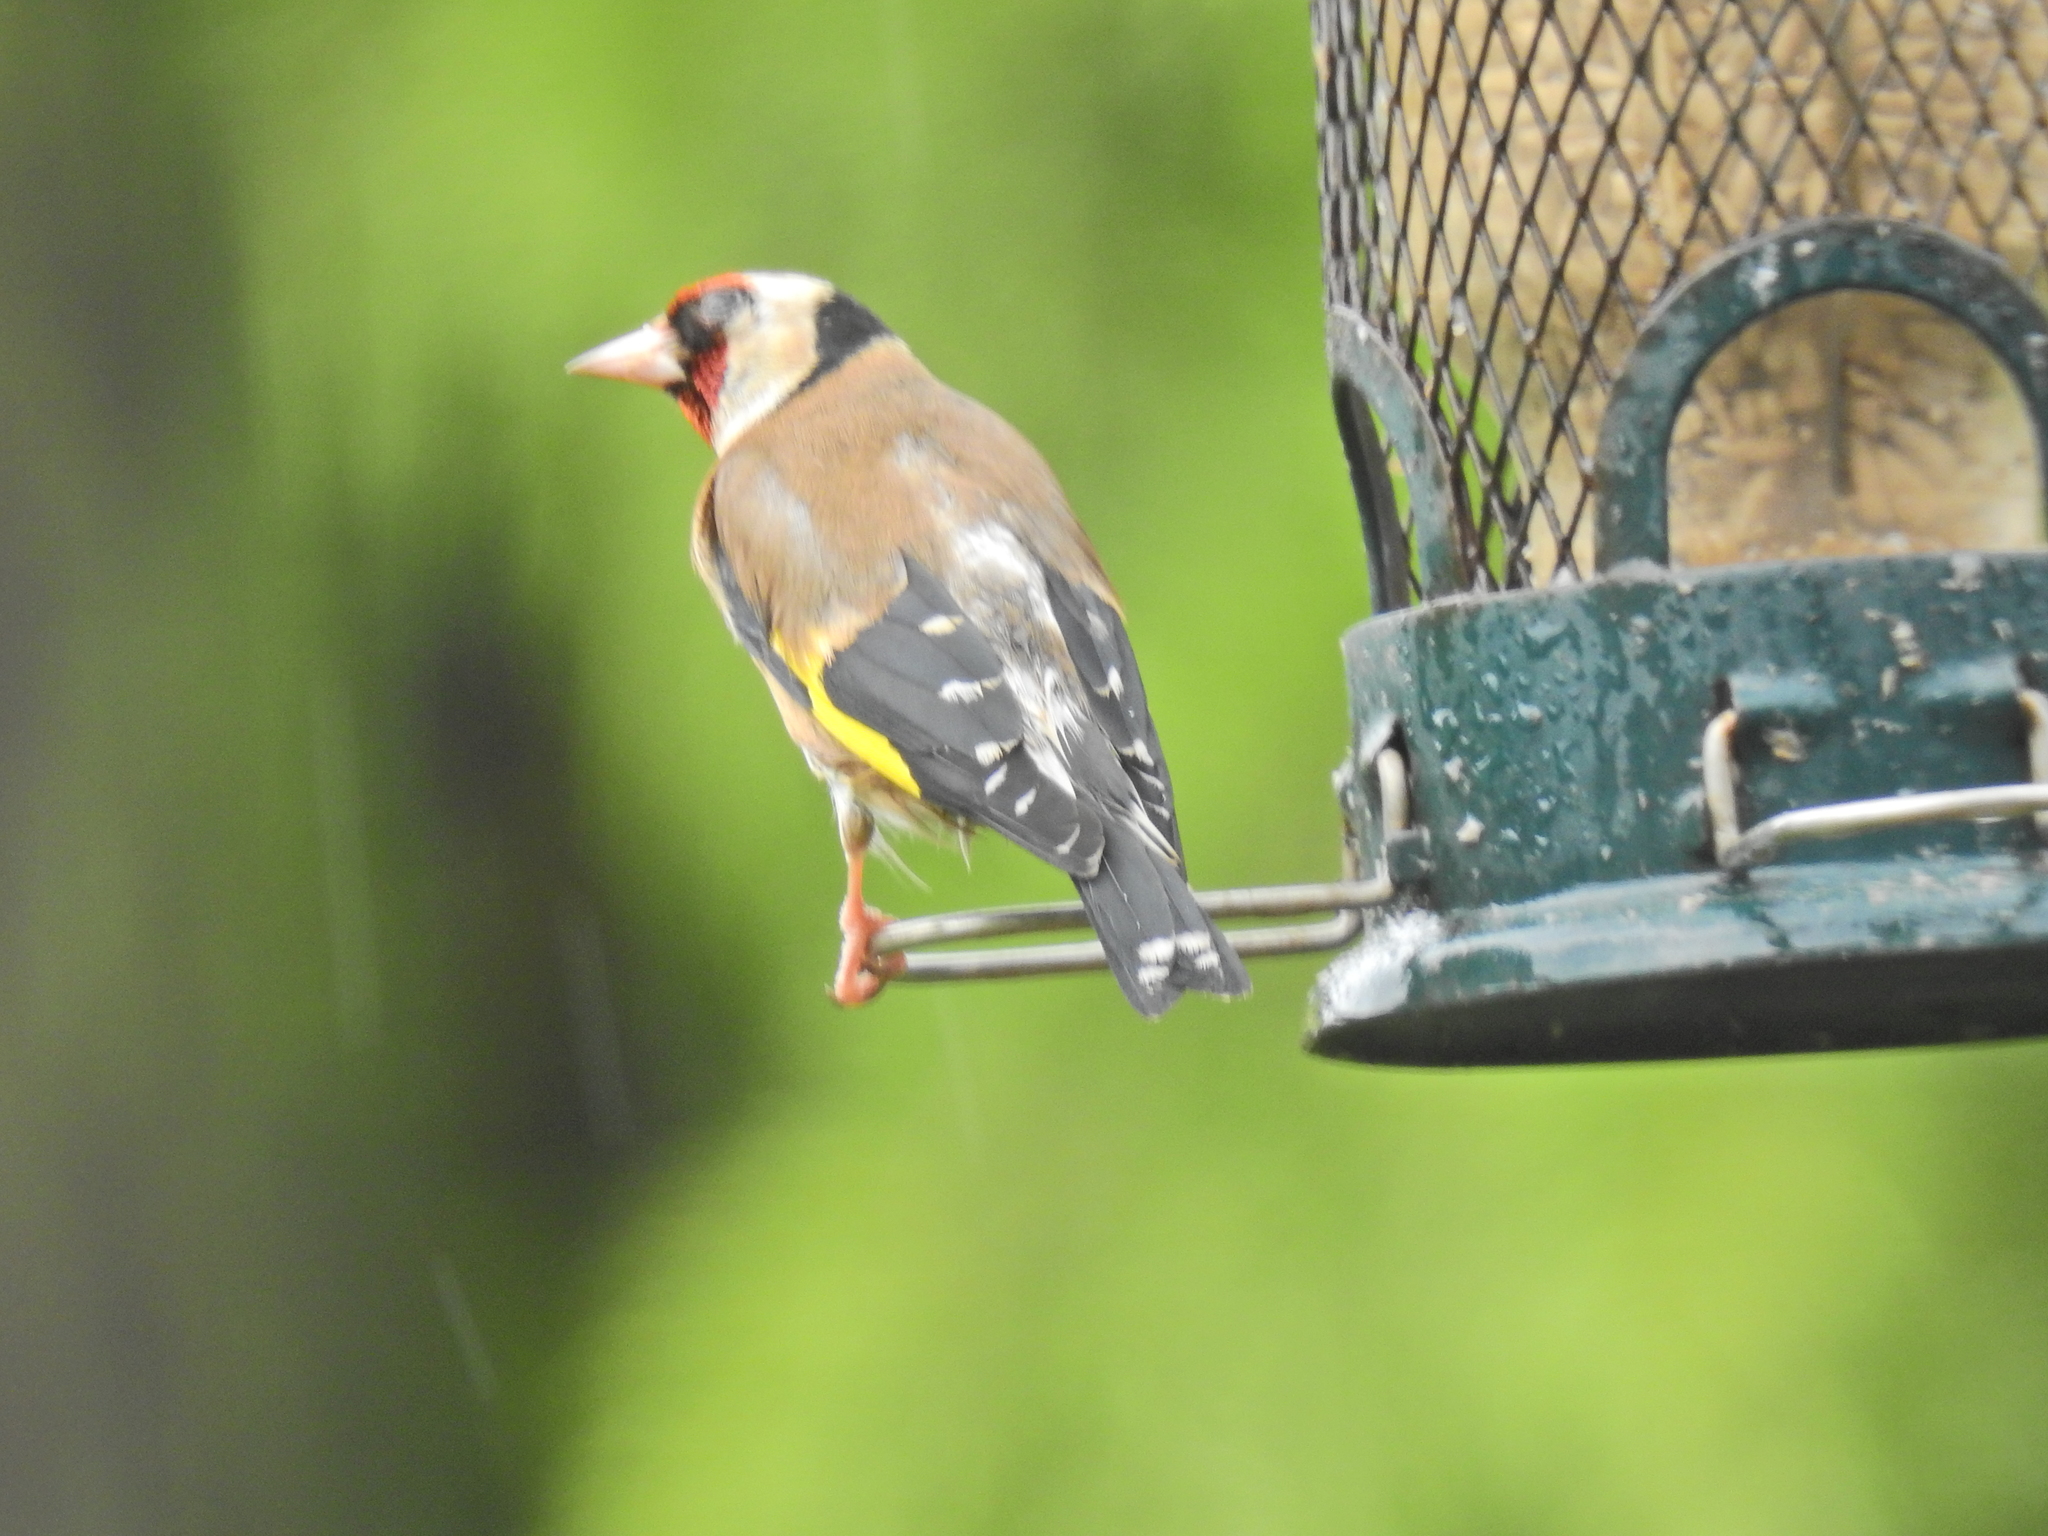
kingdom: Animalia
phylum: Chordata
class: Aves
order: Passeriformes
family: Fringillidae
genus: Carduelis
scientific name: Carduelis carduelis
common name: European goldfinch
